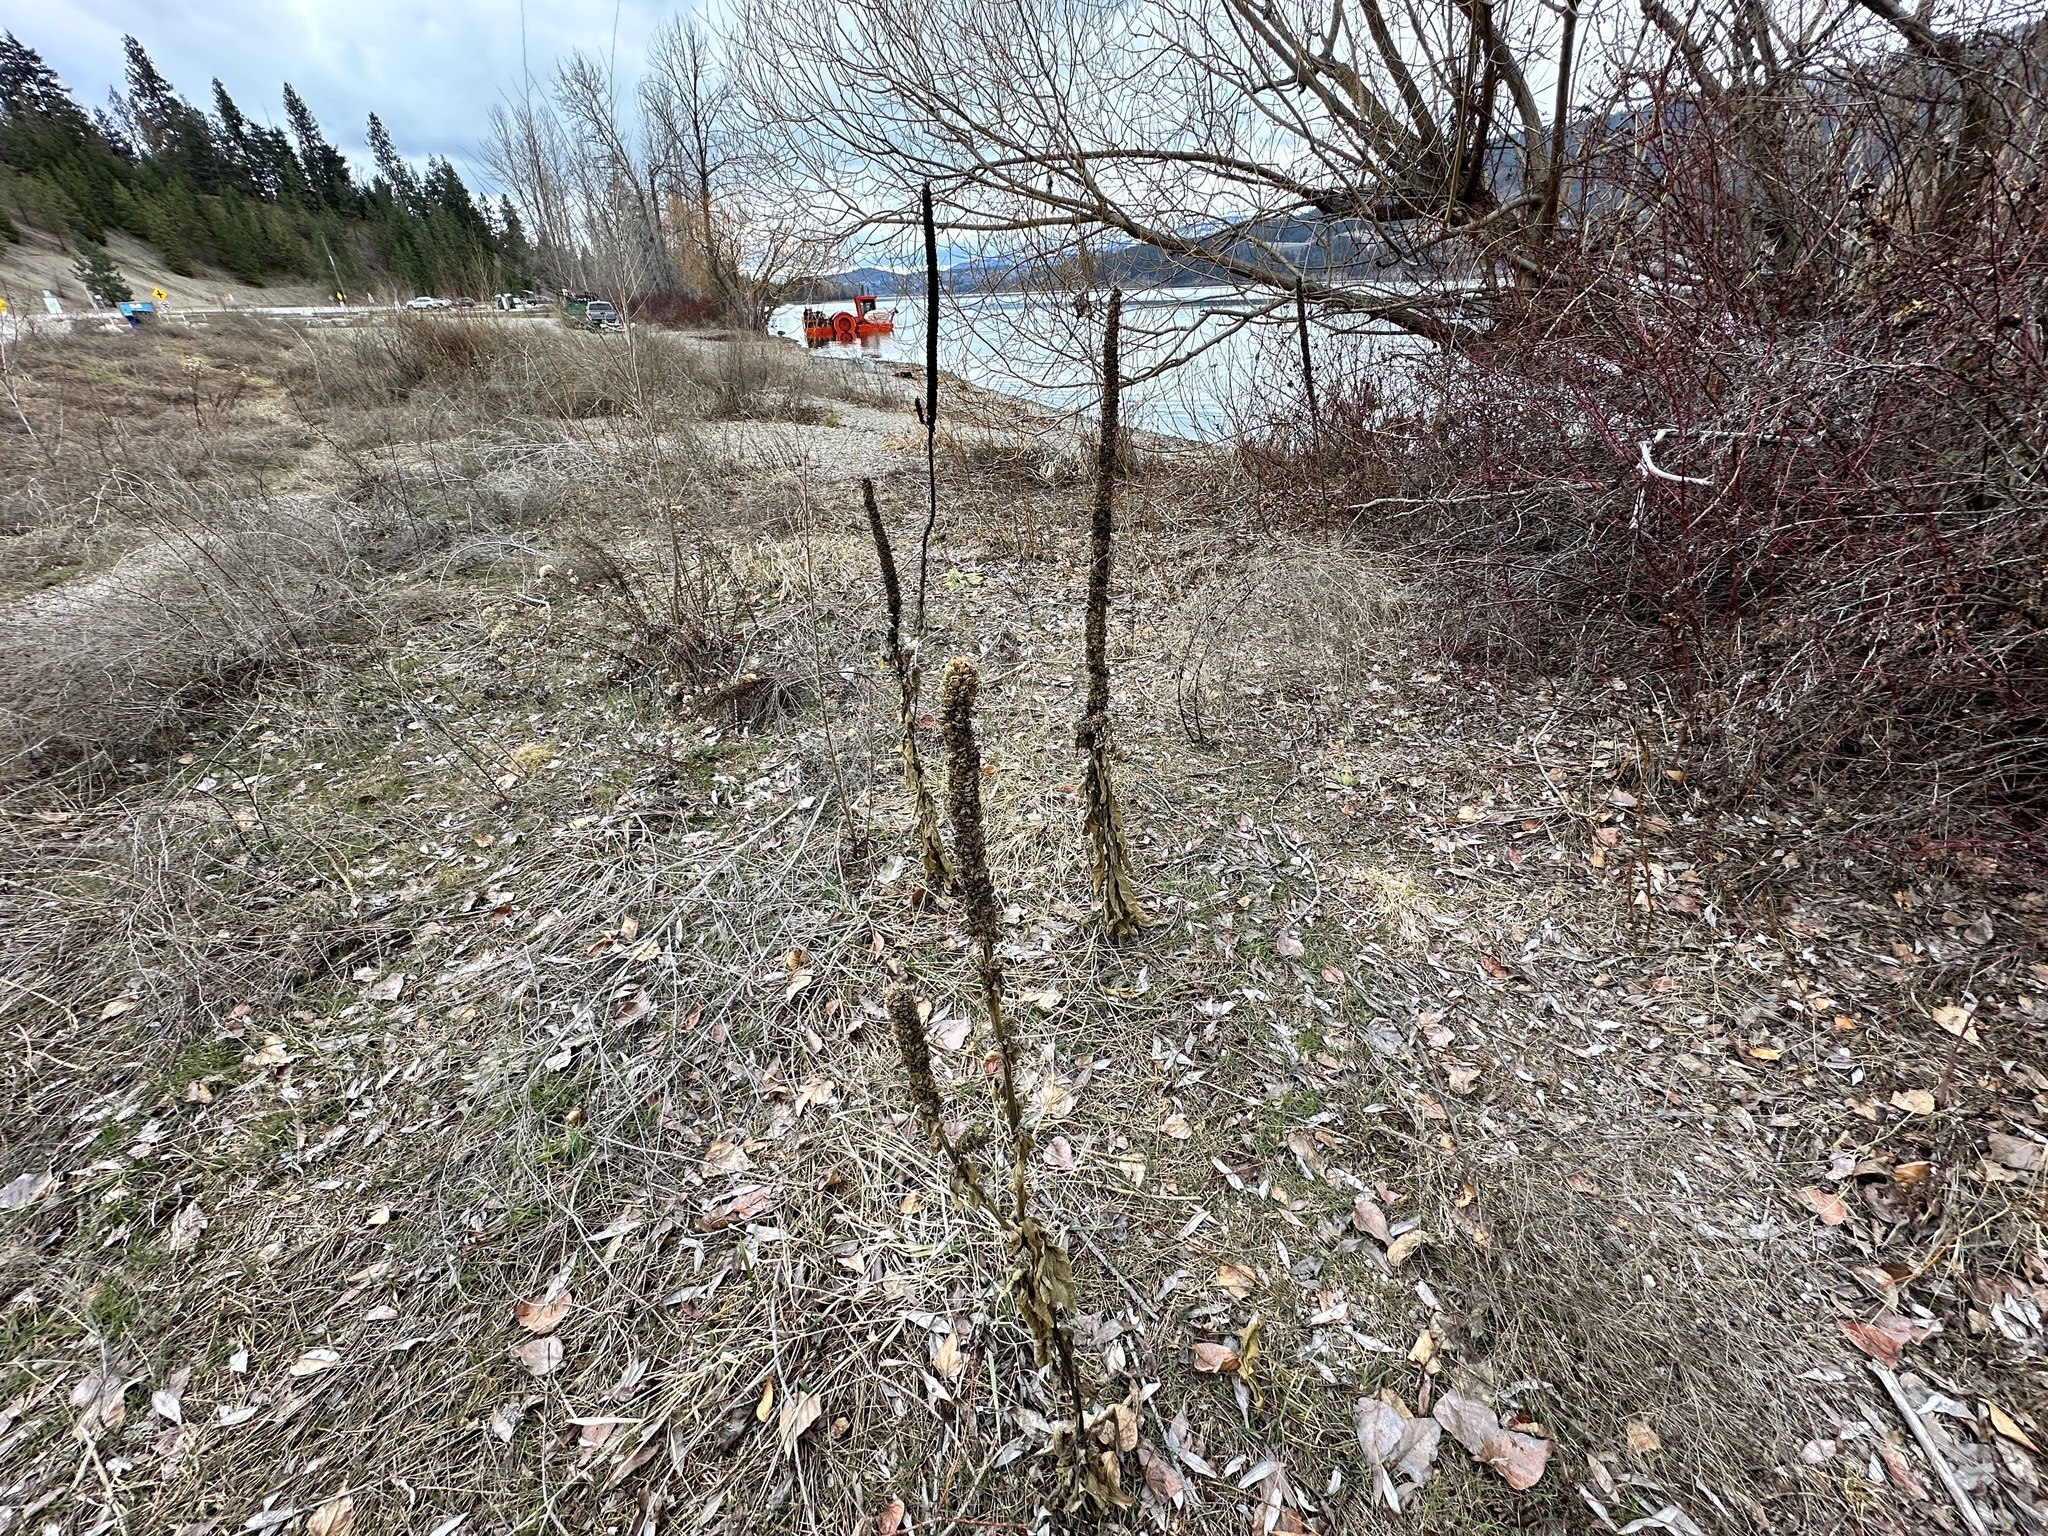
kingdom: Plantae
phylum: Tracheophyta
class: Magnoliopsida
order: Lamiales
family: Scrophulariaceae
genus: Verbascum
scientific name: Verbascum thapsus
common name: Common mullein
